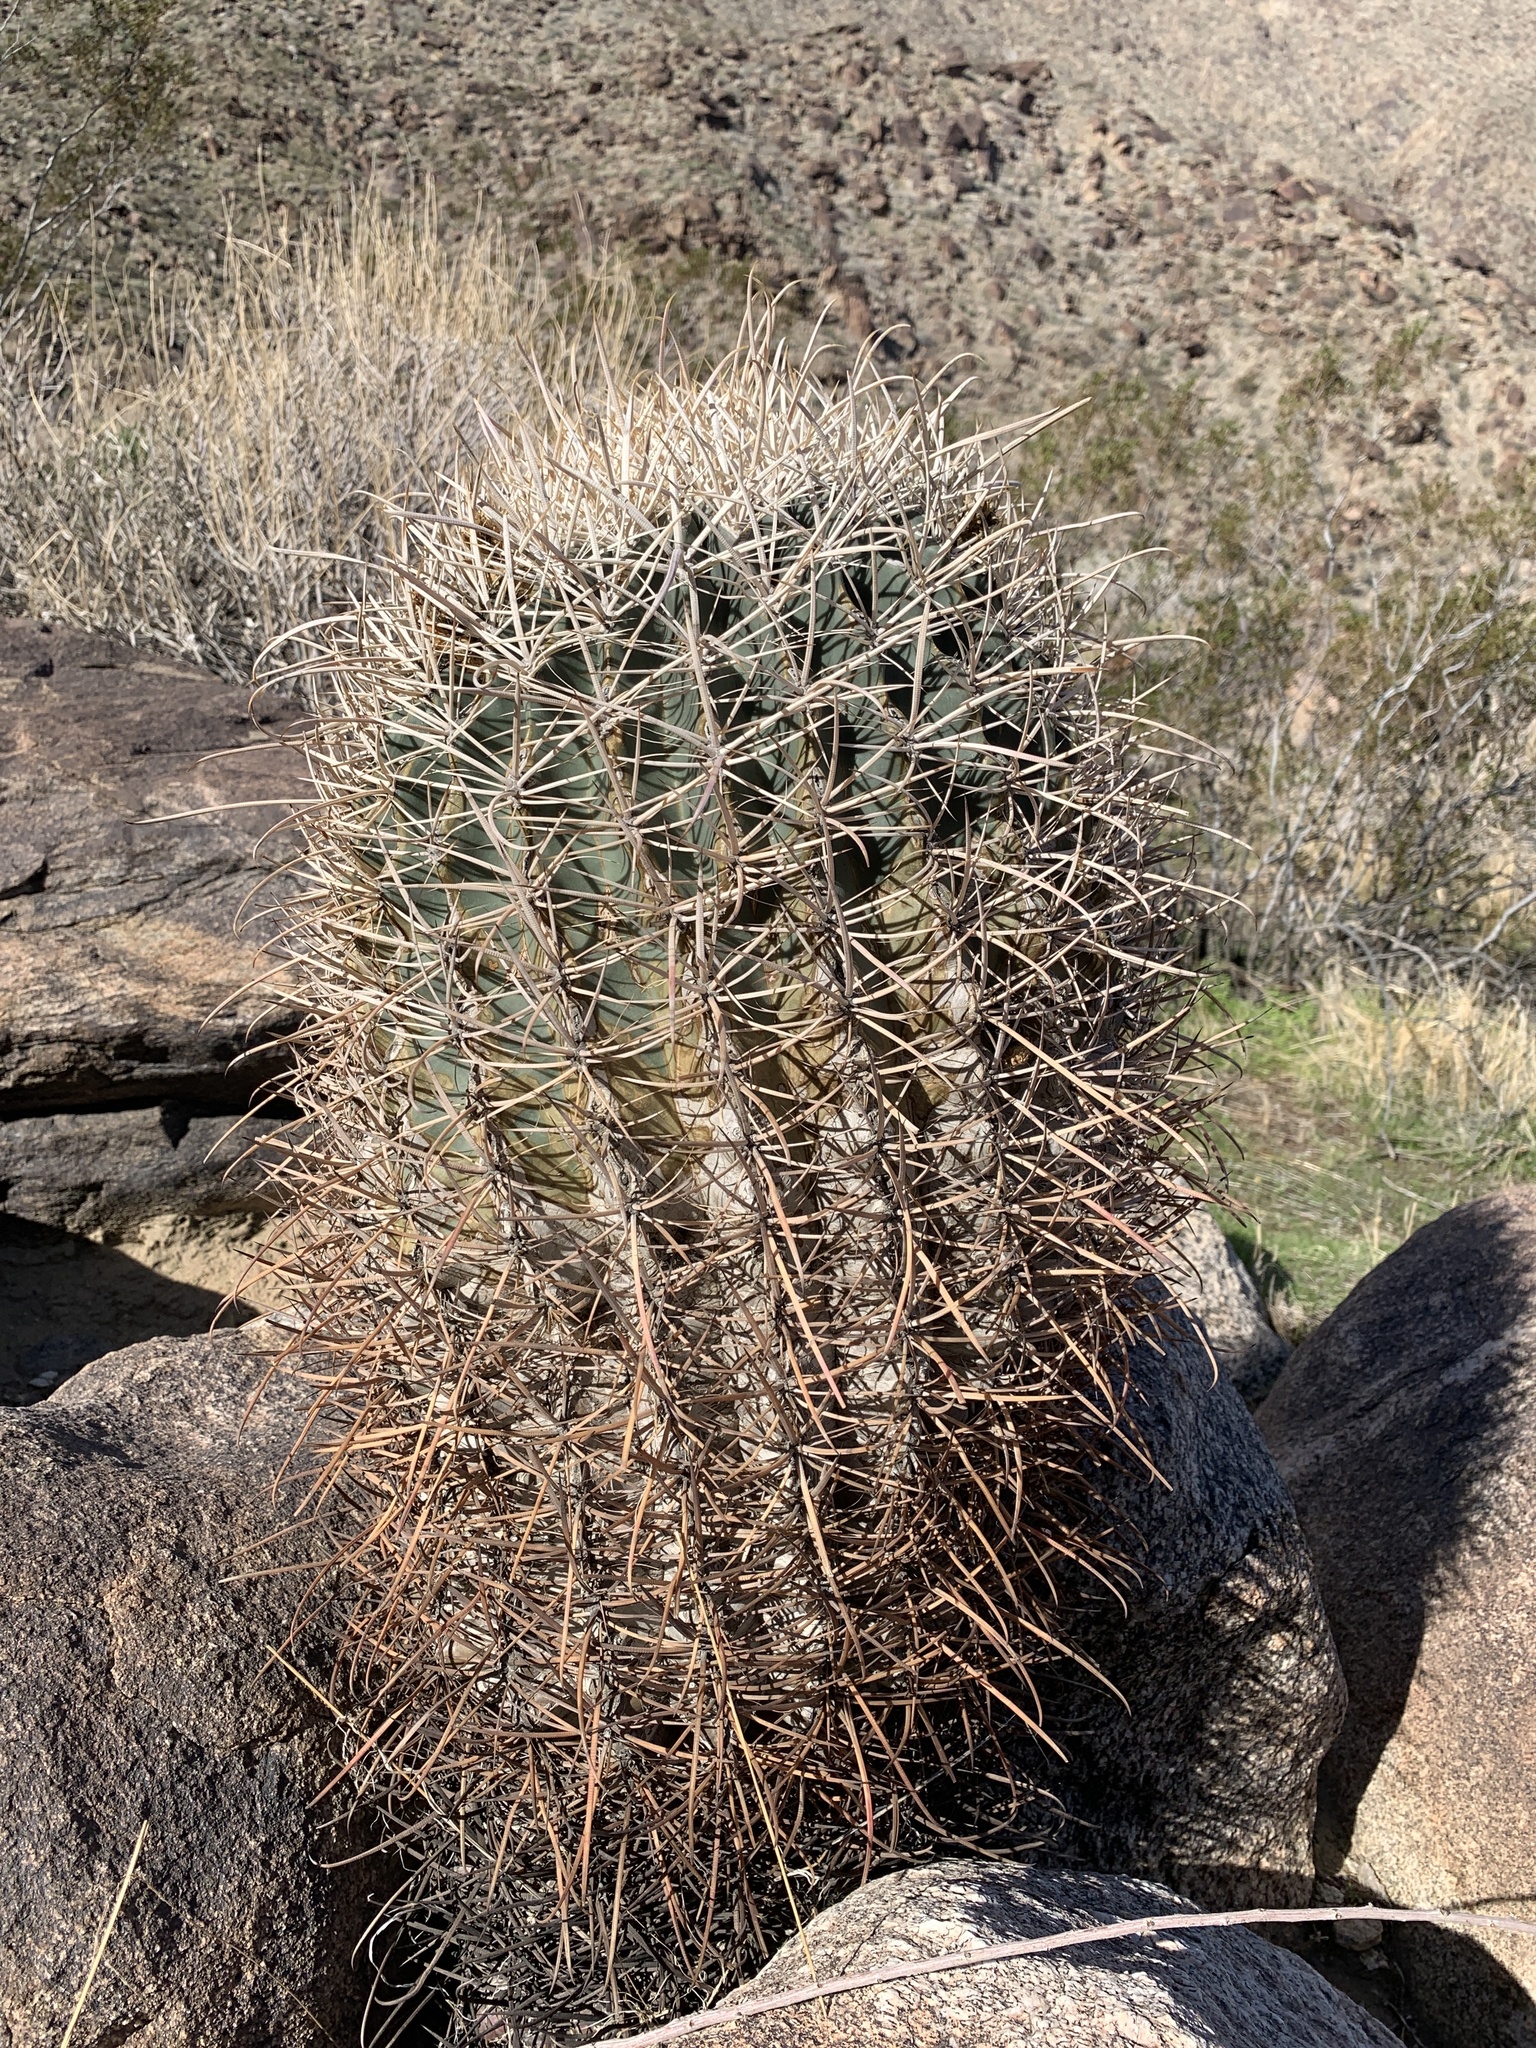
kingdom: Plantae
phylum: Tracheophyta
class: Magnoliopsida
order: Caryophyllales
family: Cactaceae
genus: Ferocactus
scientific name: Ferocactus cylindraceus
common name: California barrel cactus
